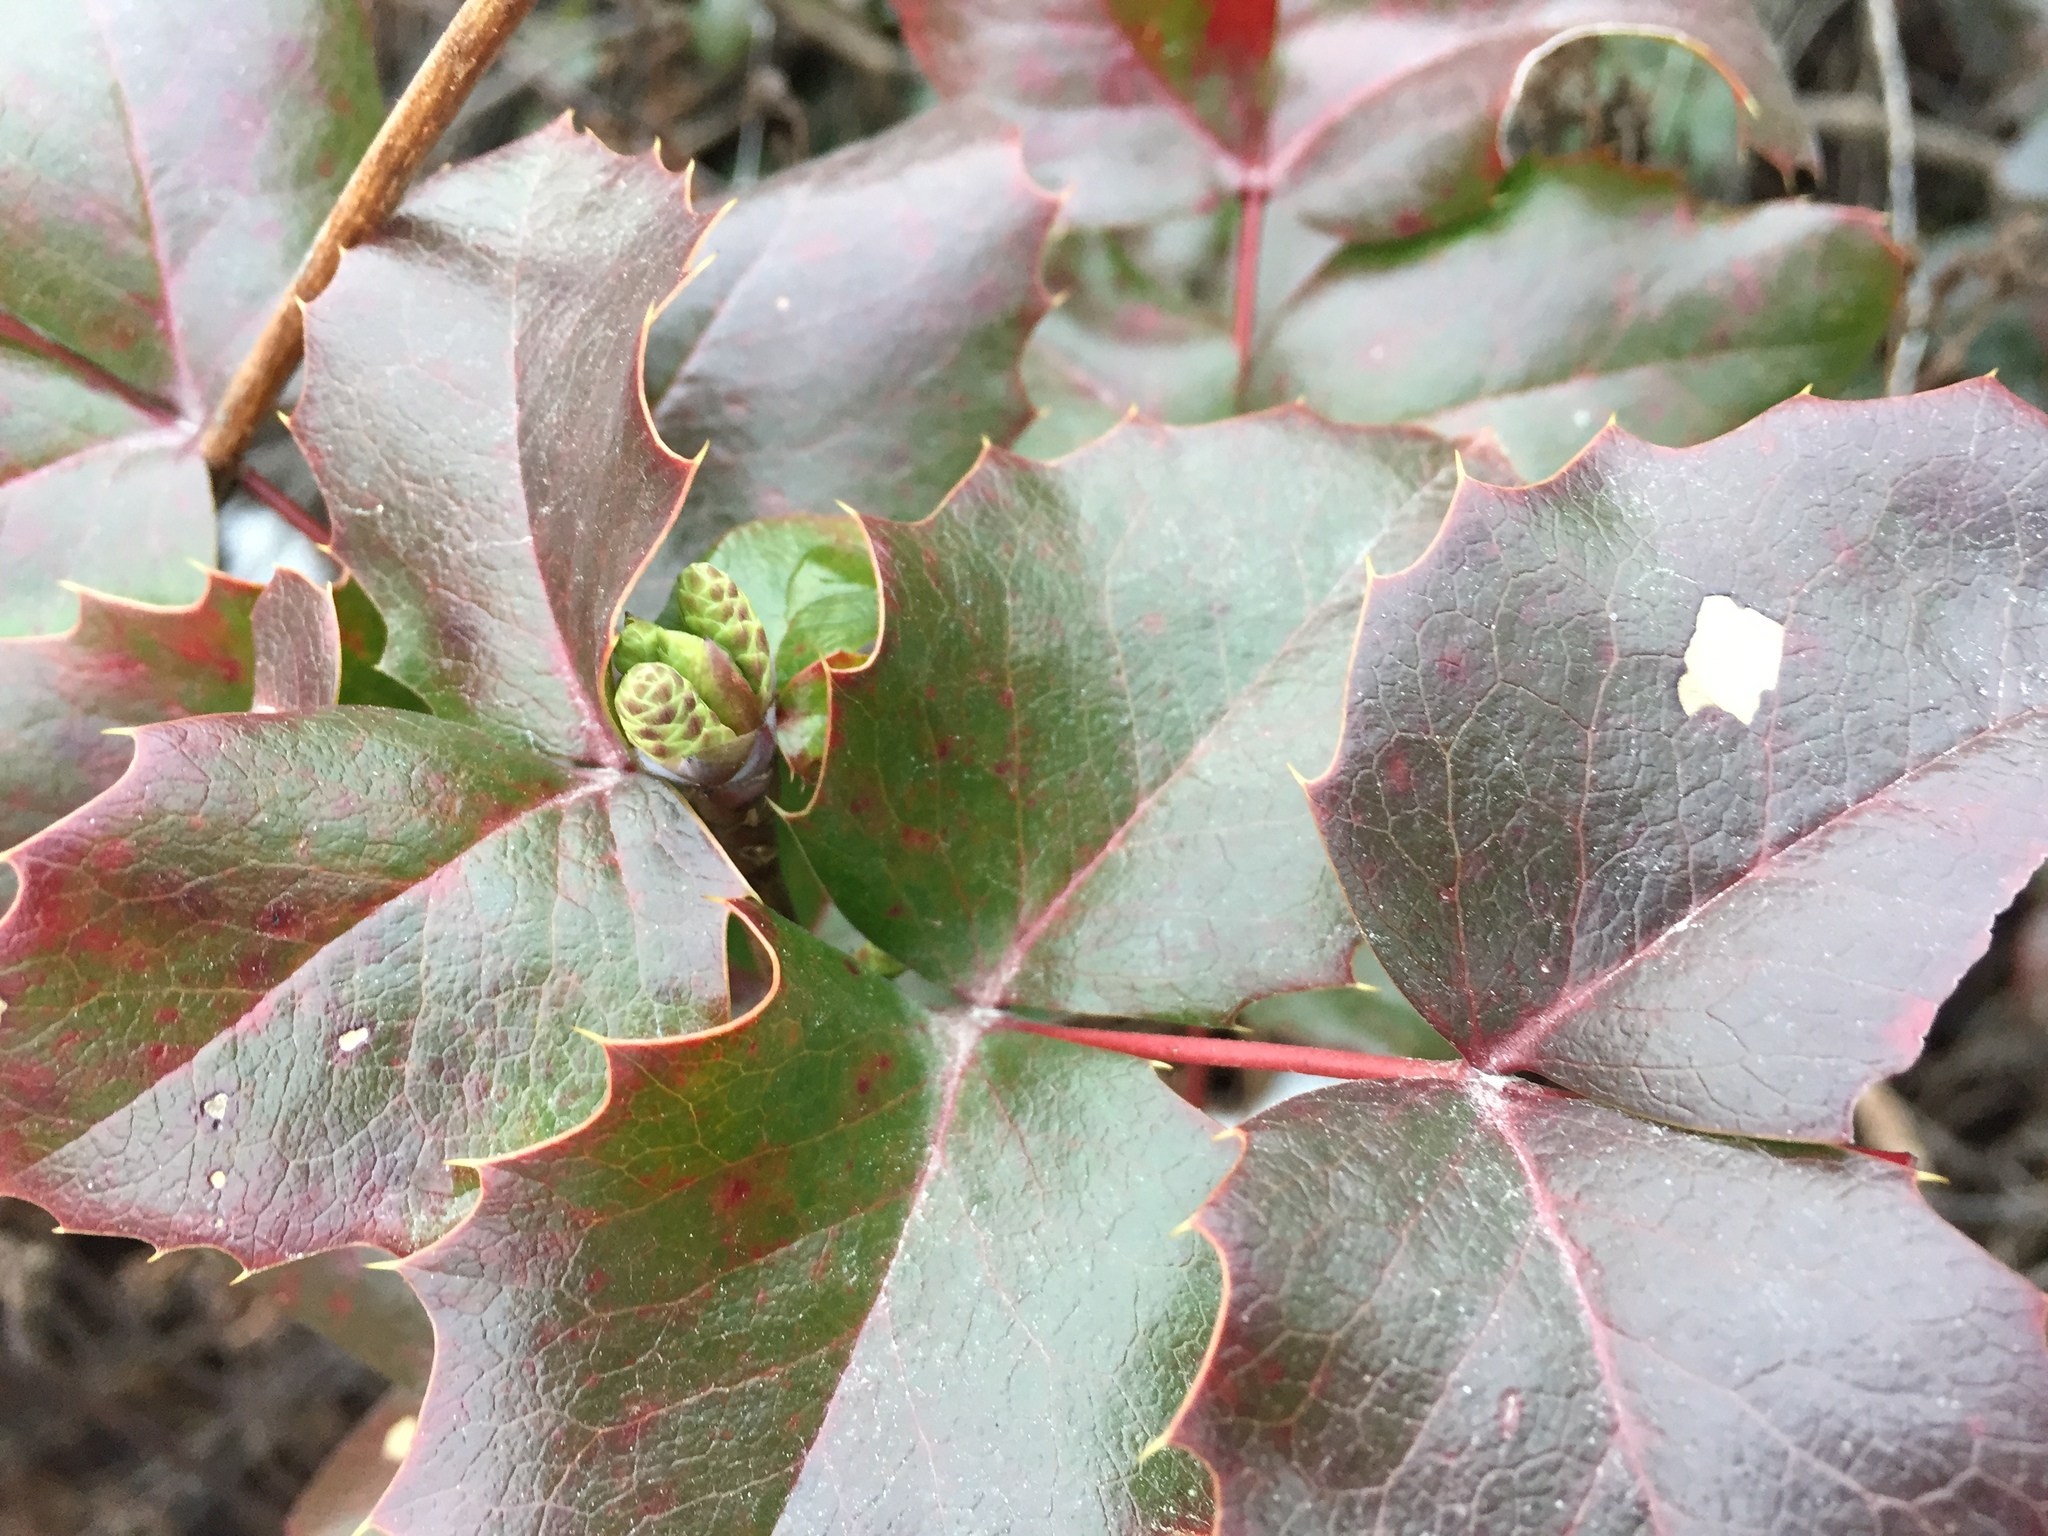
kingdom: Plantae
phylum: Tracheophyta
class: Magnoliopsida
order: Ranunculales
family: Berberidaceae
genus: Mahonia
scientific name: Mahonia aquifolium
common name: Oregon-grape
